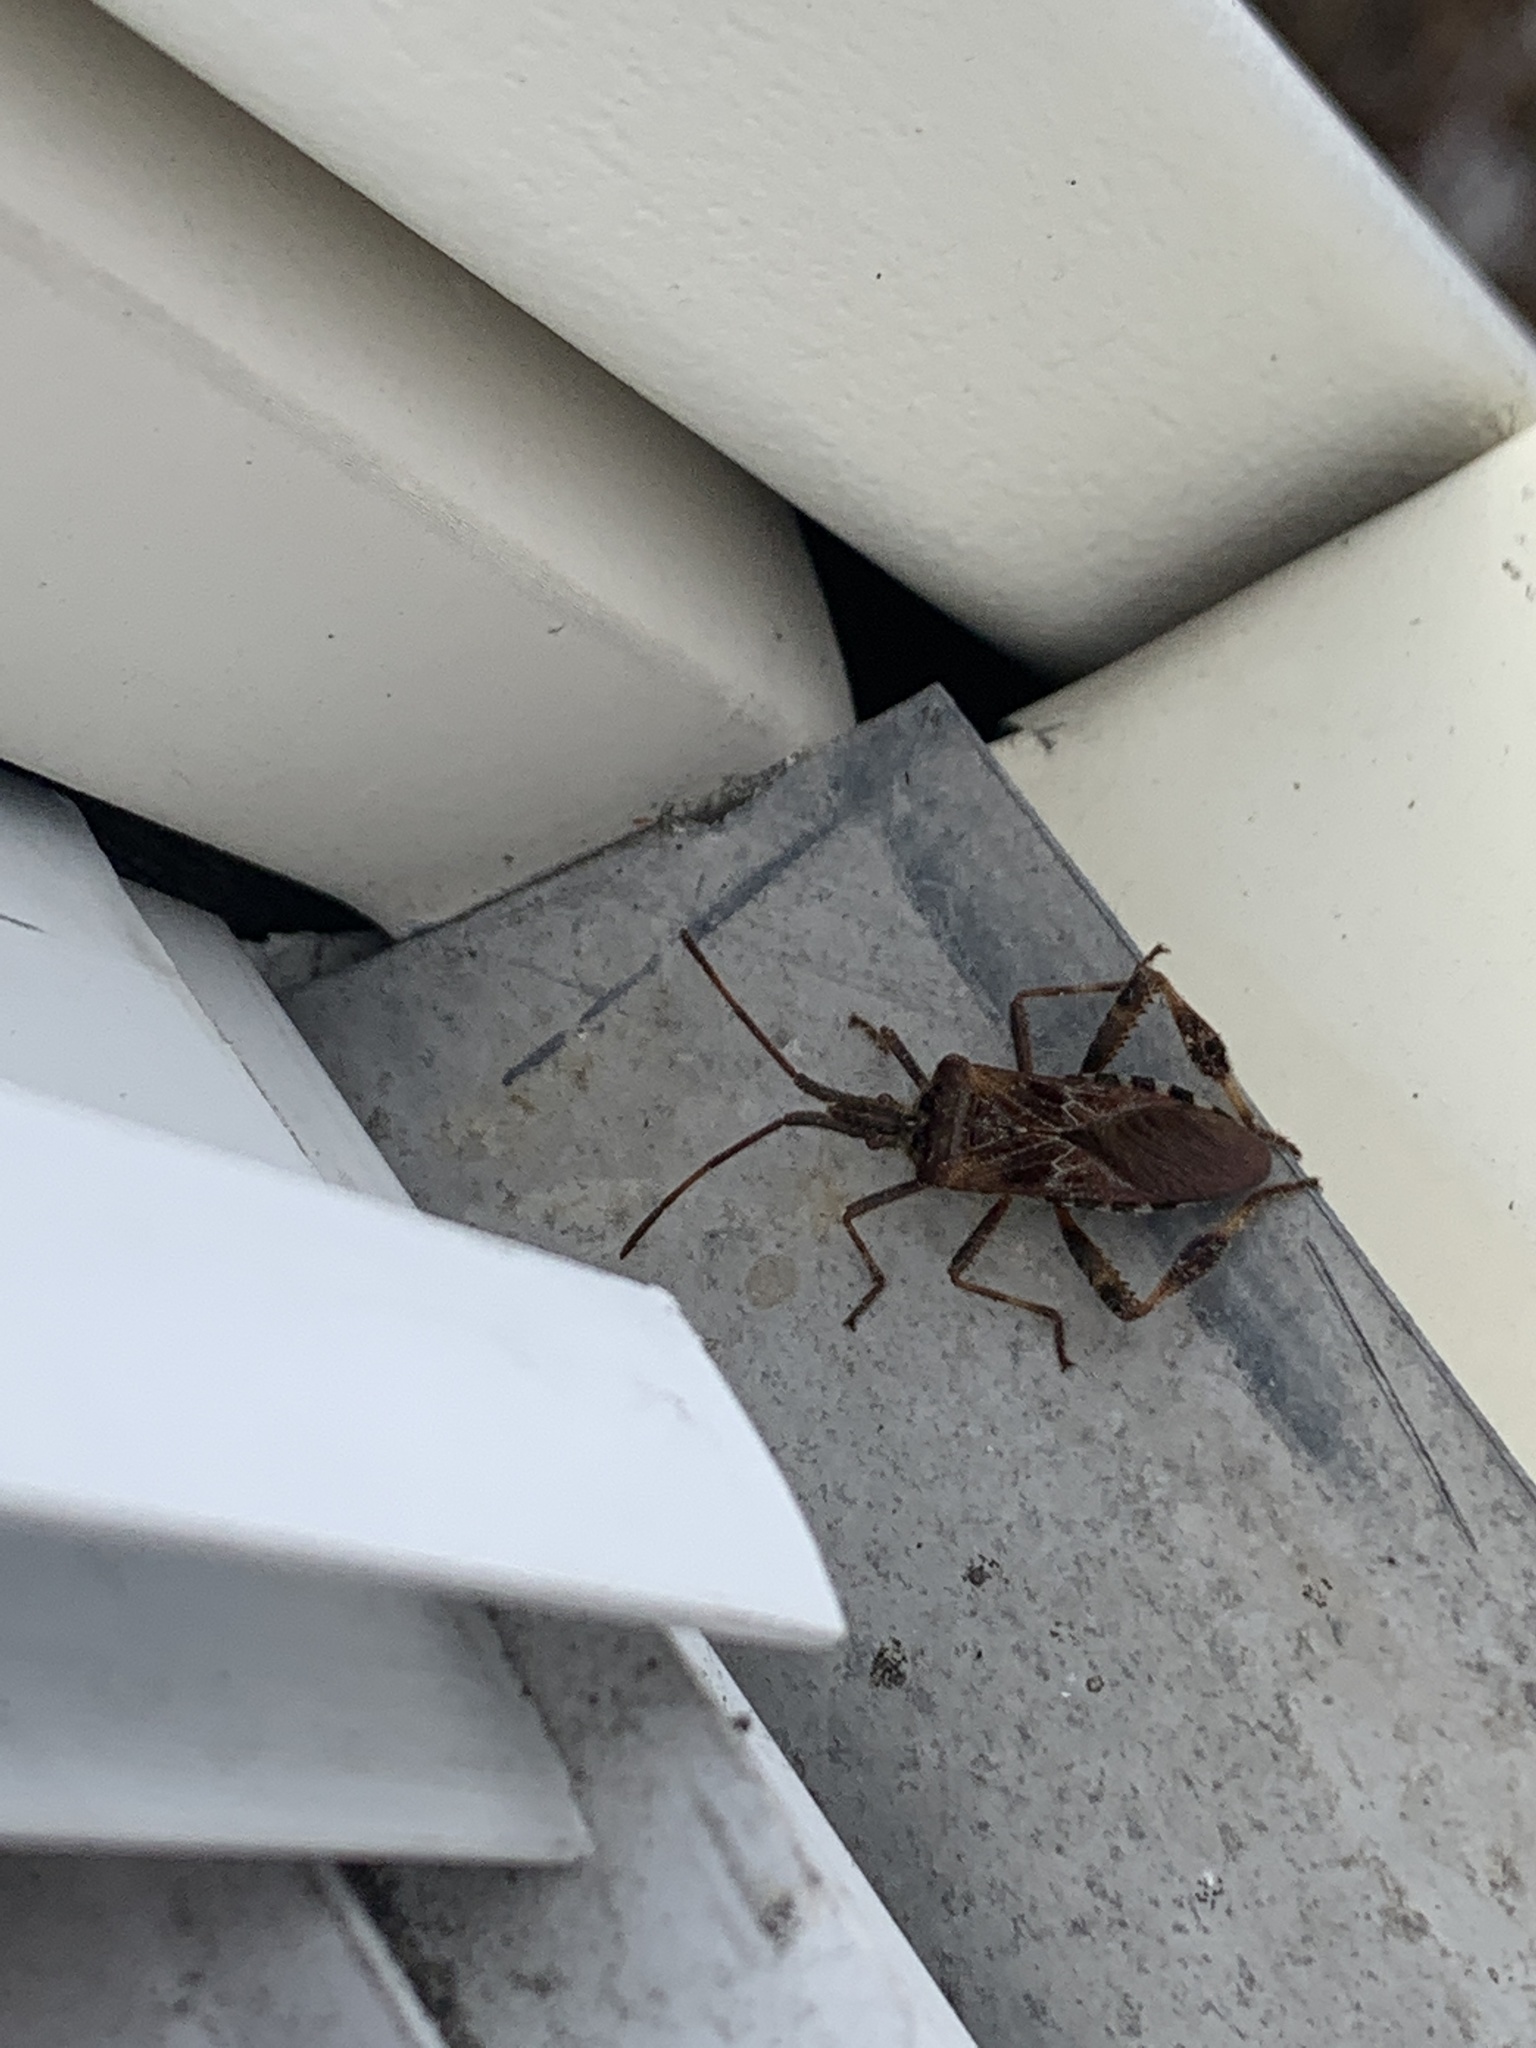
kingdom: Animalia
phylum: Arthropoda
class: Insecta
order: Hemiptera
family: Coreidae
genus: Leptoglossus
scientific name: Leptoglossus occidentalis
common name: Western conifer-seed bug
